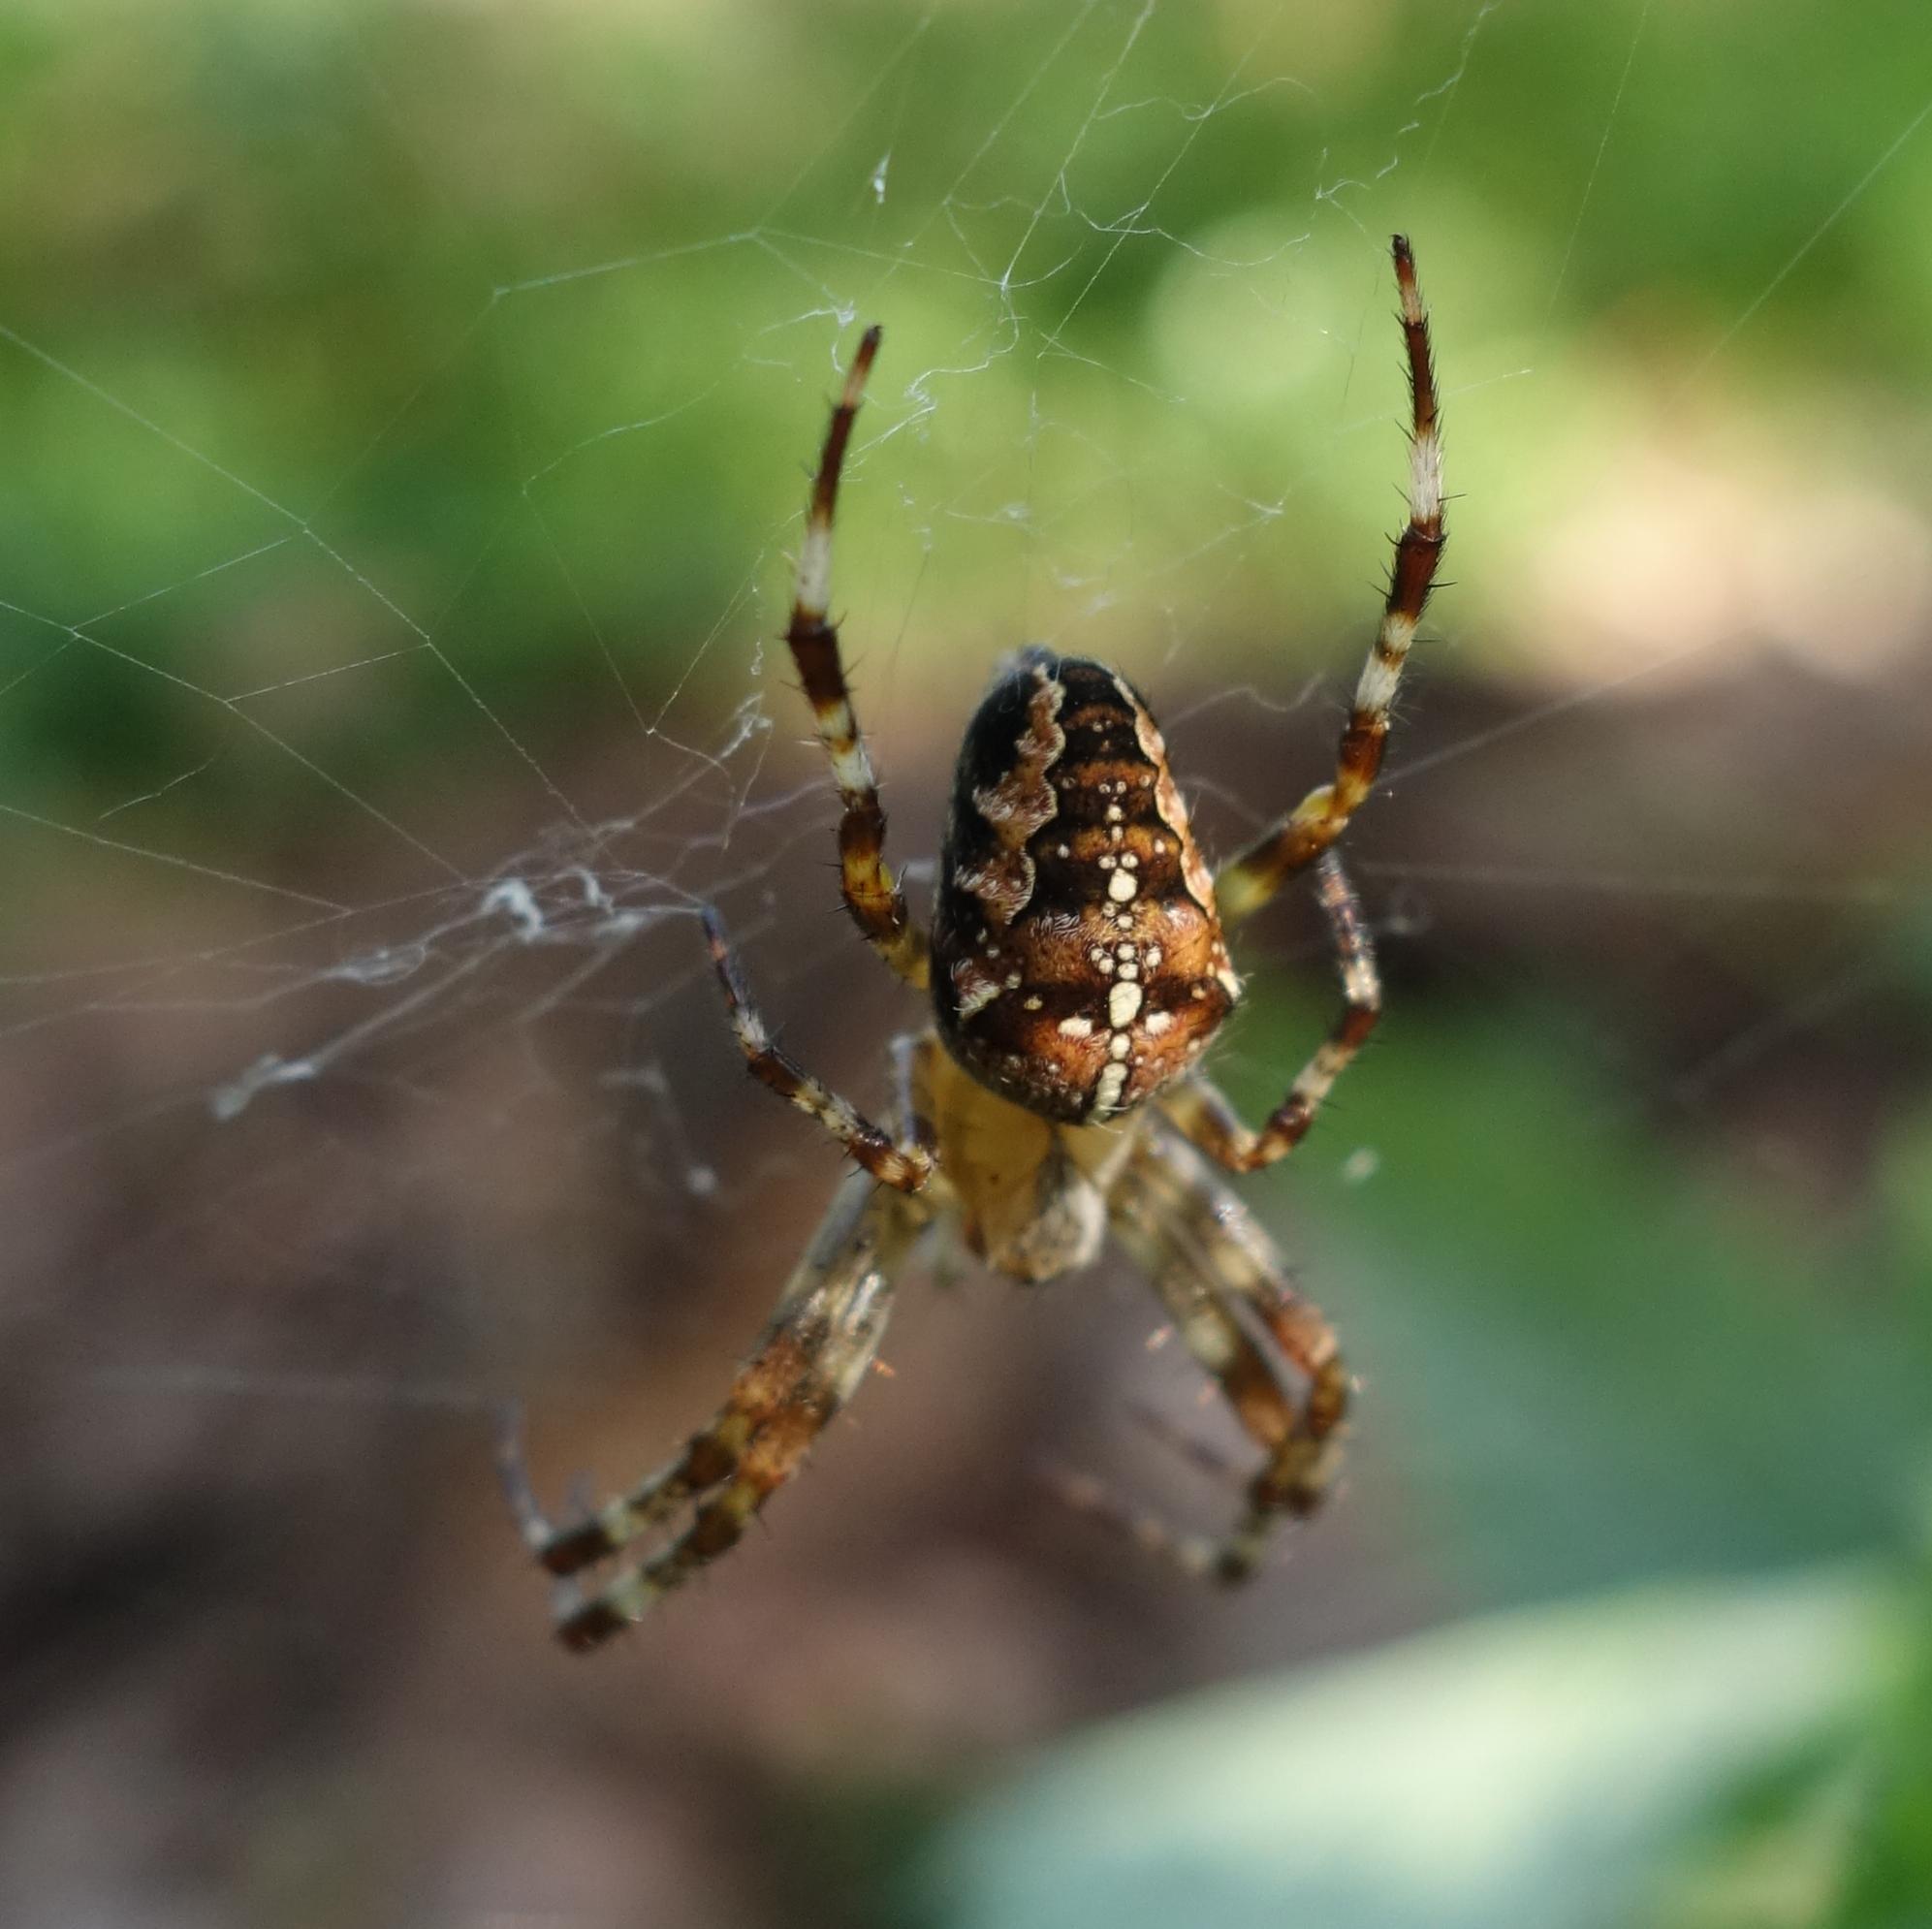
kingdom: Animalia
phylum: Arthropoda
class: Arachnida
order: Araneae
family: Araneidae
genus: Araneus
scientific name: Araneus diadematus
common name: Cross orbweaver
